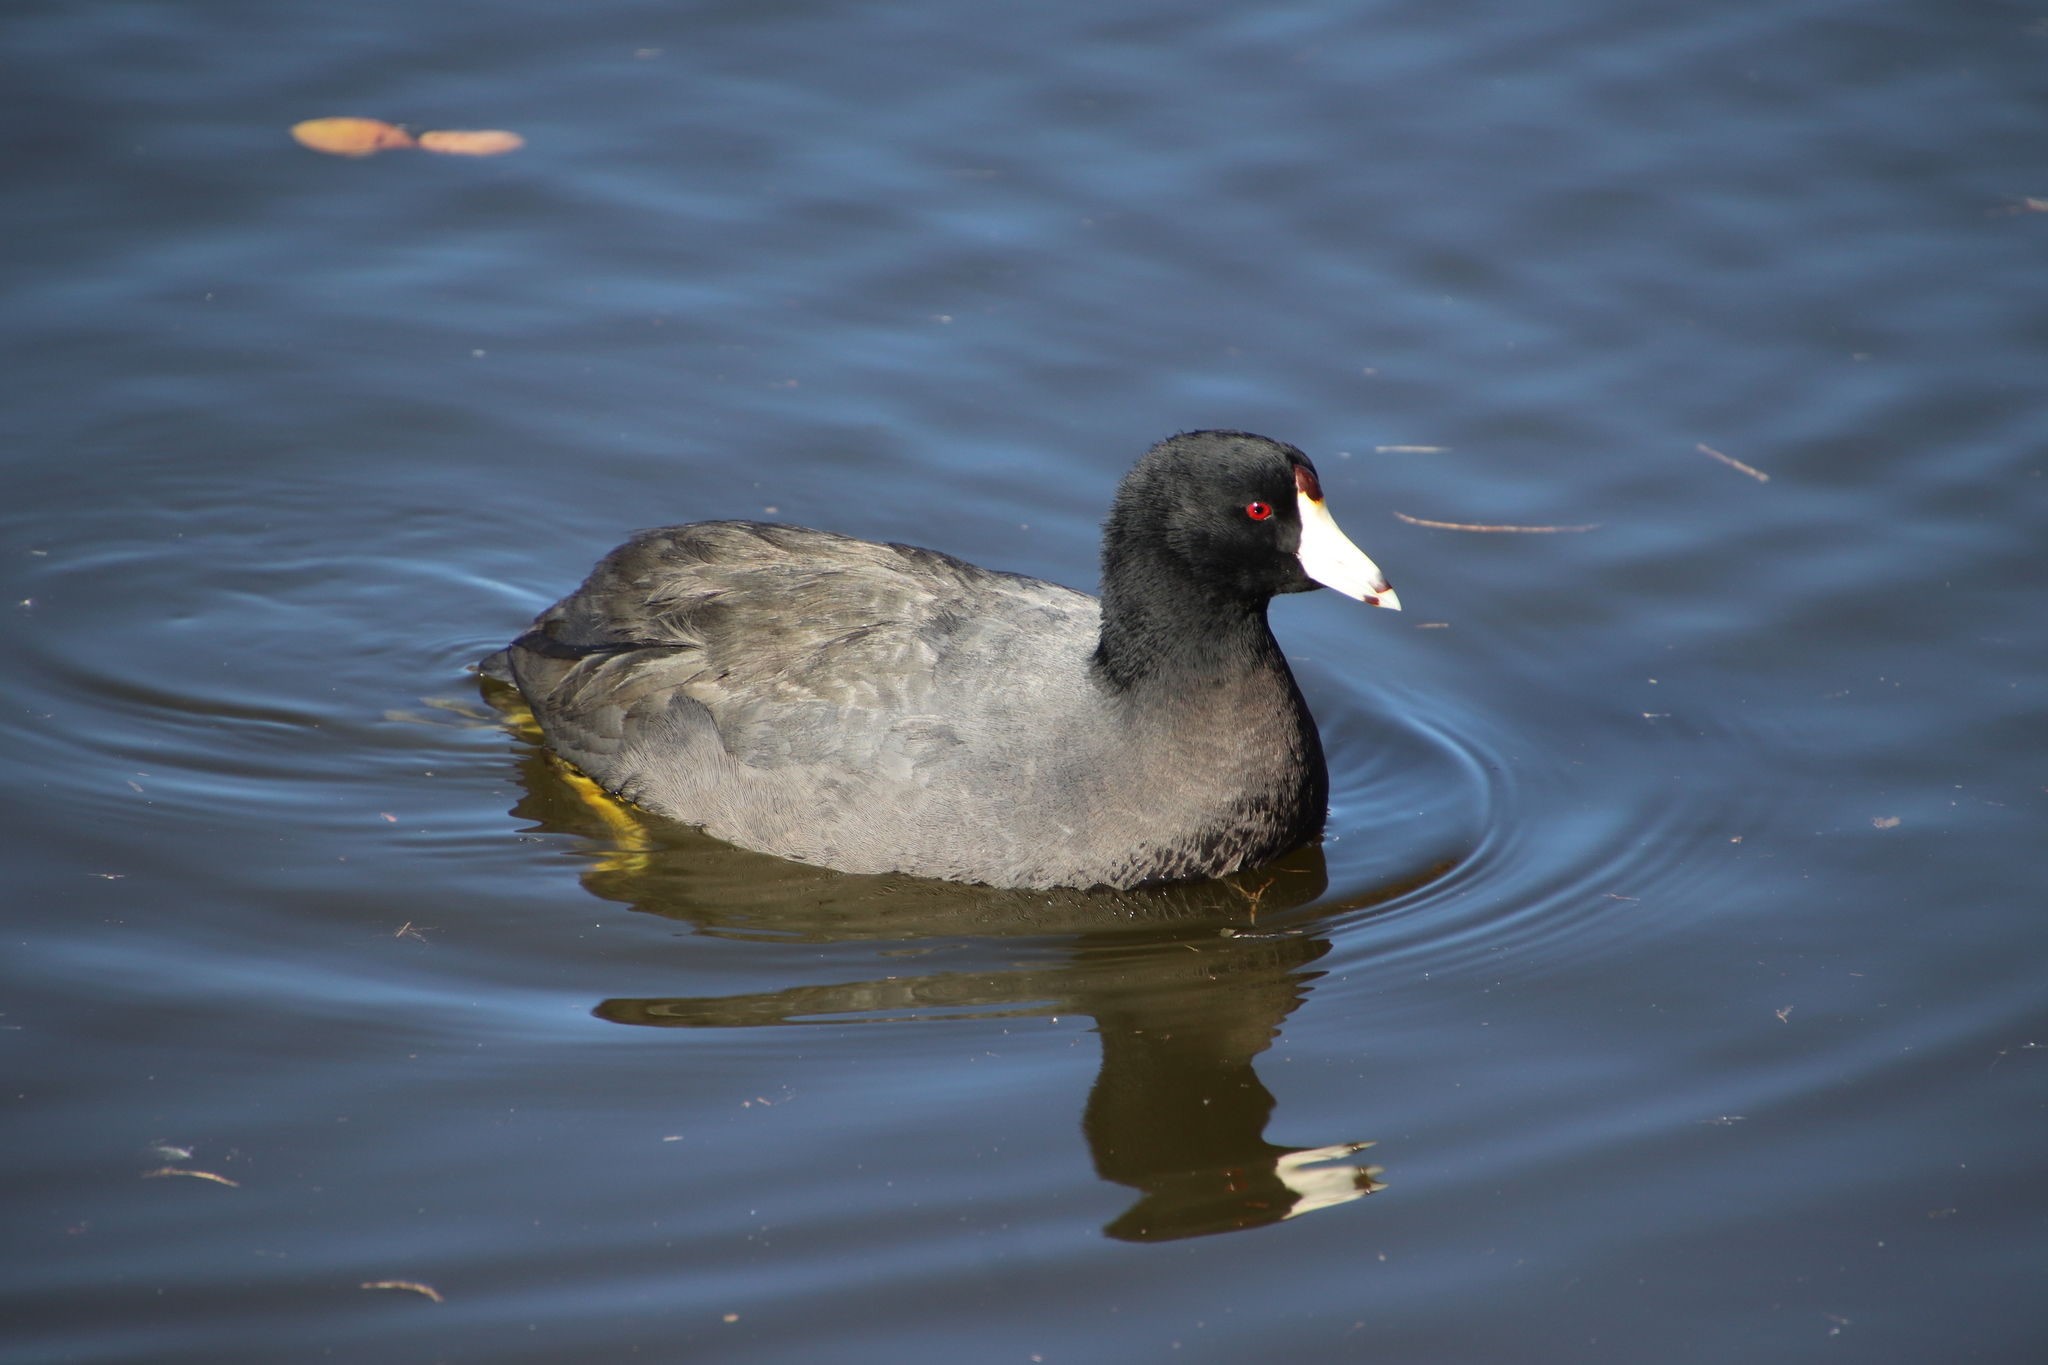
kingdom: Animalia
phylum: Chordata
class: Aves
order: Gruiformes
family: Rallidae
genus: Fulica
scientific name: Fulica americana
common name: American coot
